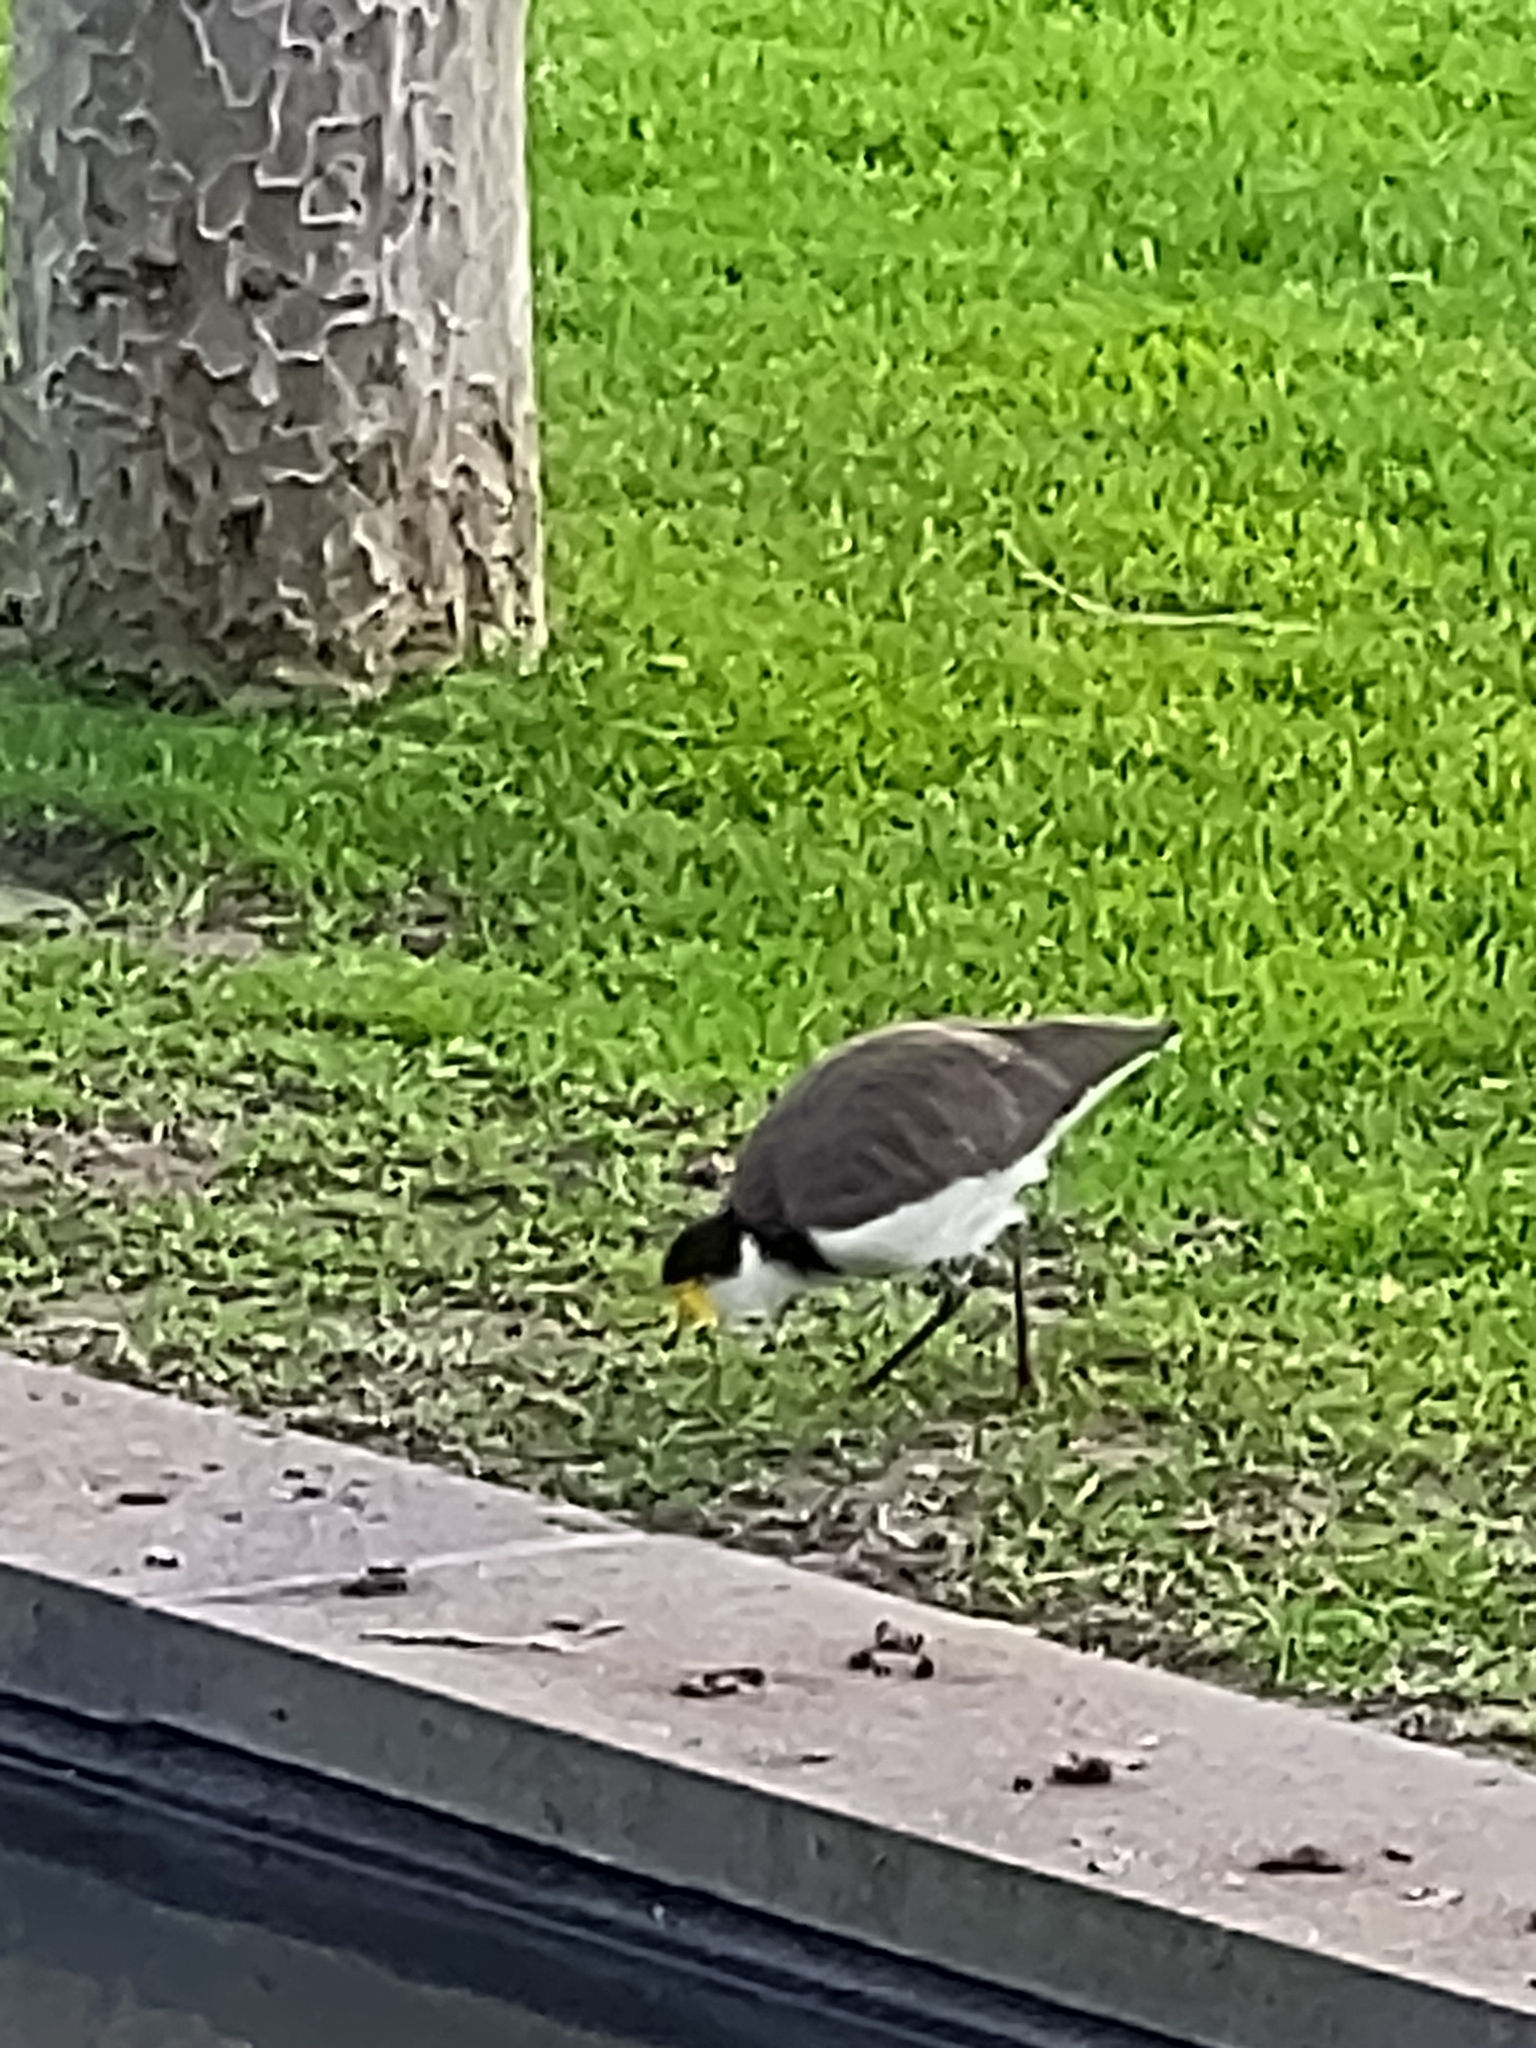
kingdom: Animalia
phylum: Chordata
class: Aves
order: Charadriiformes
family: Charadriidae
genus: Vanellus
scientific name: Vanellus miles
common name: Masked lapwing
